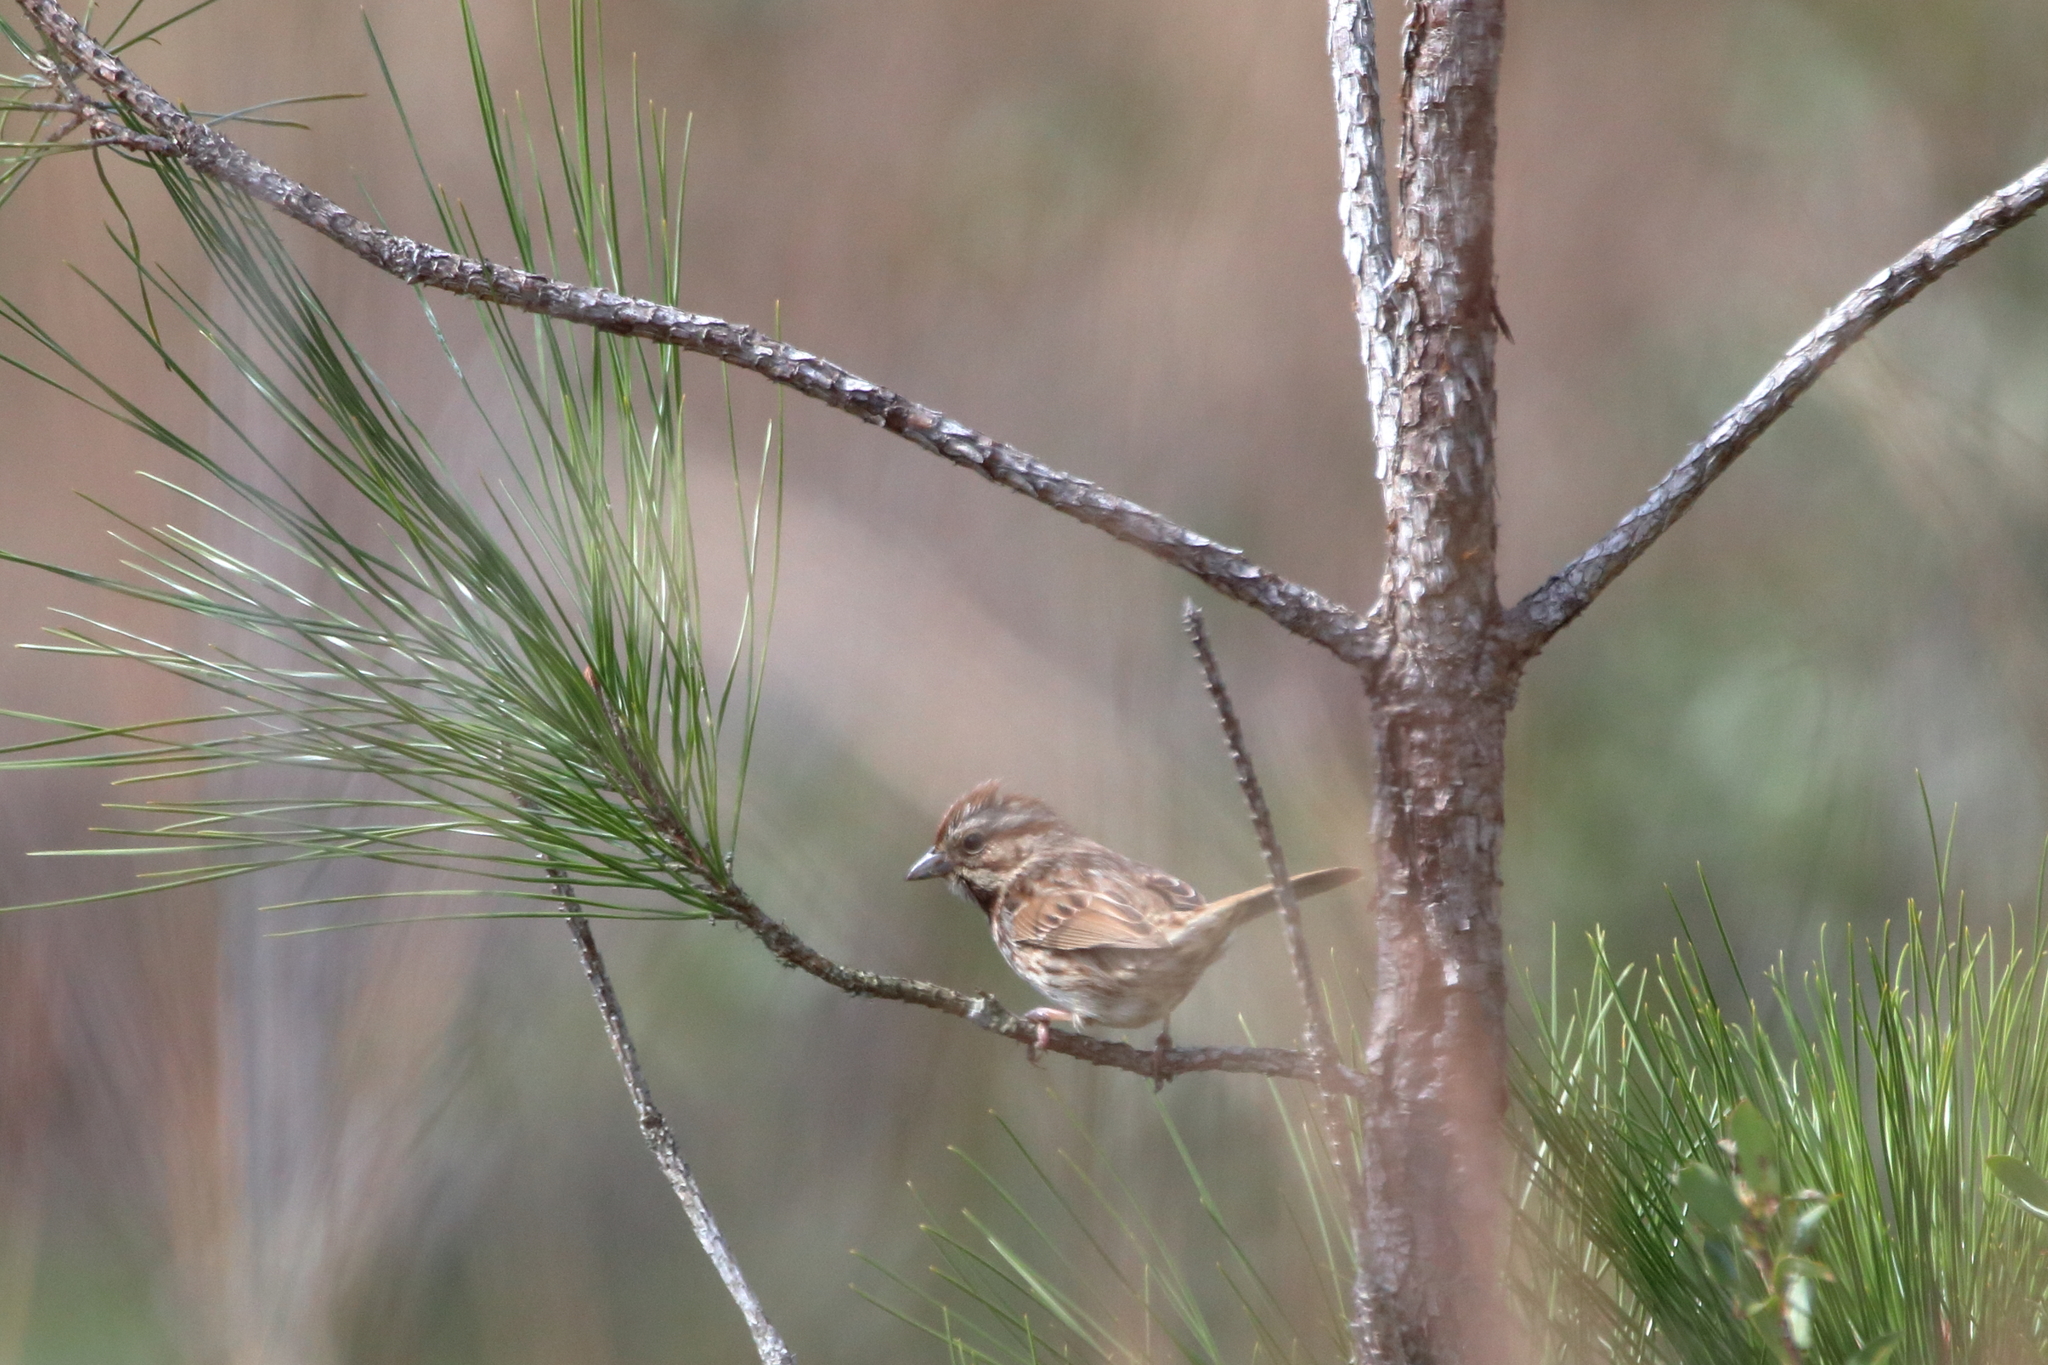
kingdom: Animalia
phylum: Chordata
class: Aves
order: Passeriformes
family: Passerellidae
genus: Melospiza
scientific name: Melospiza melodia
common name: Song sparrow
